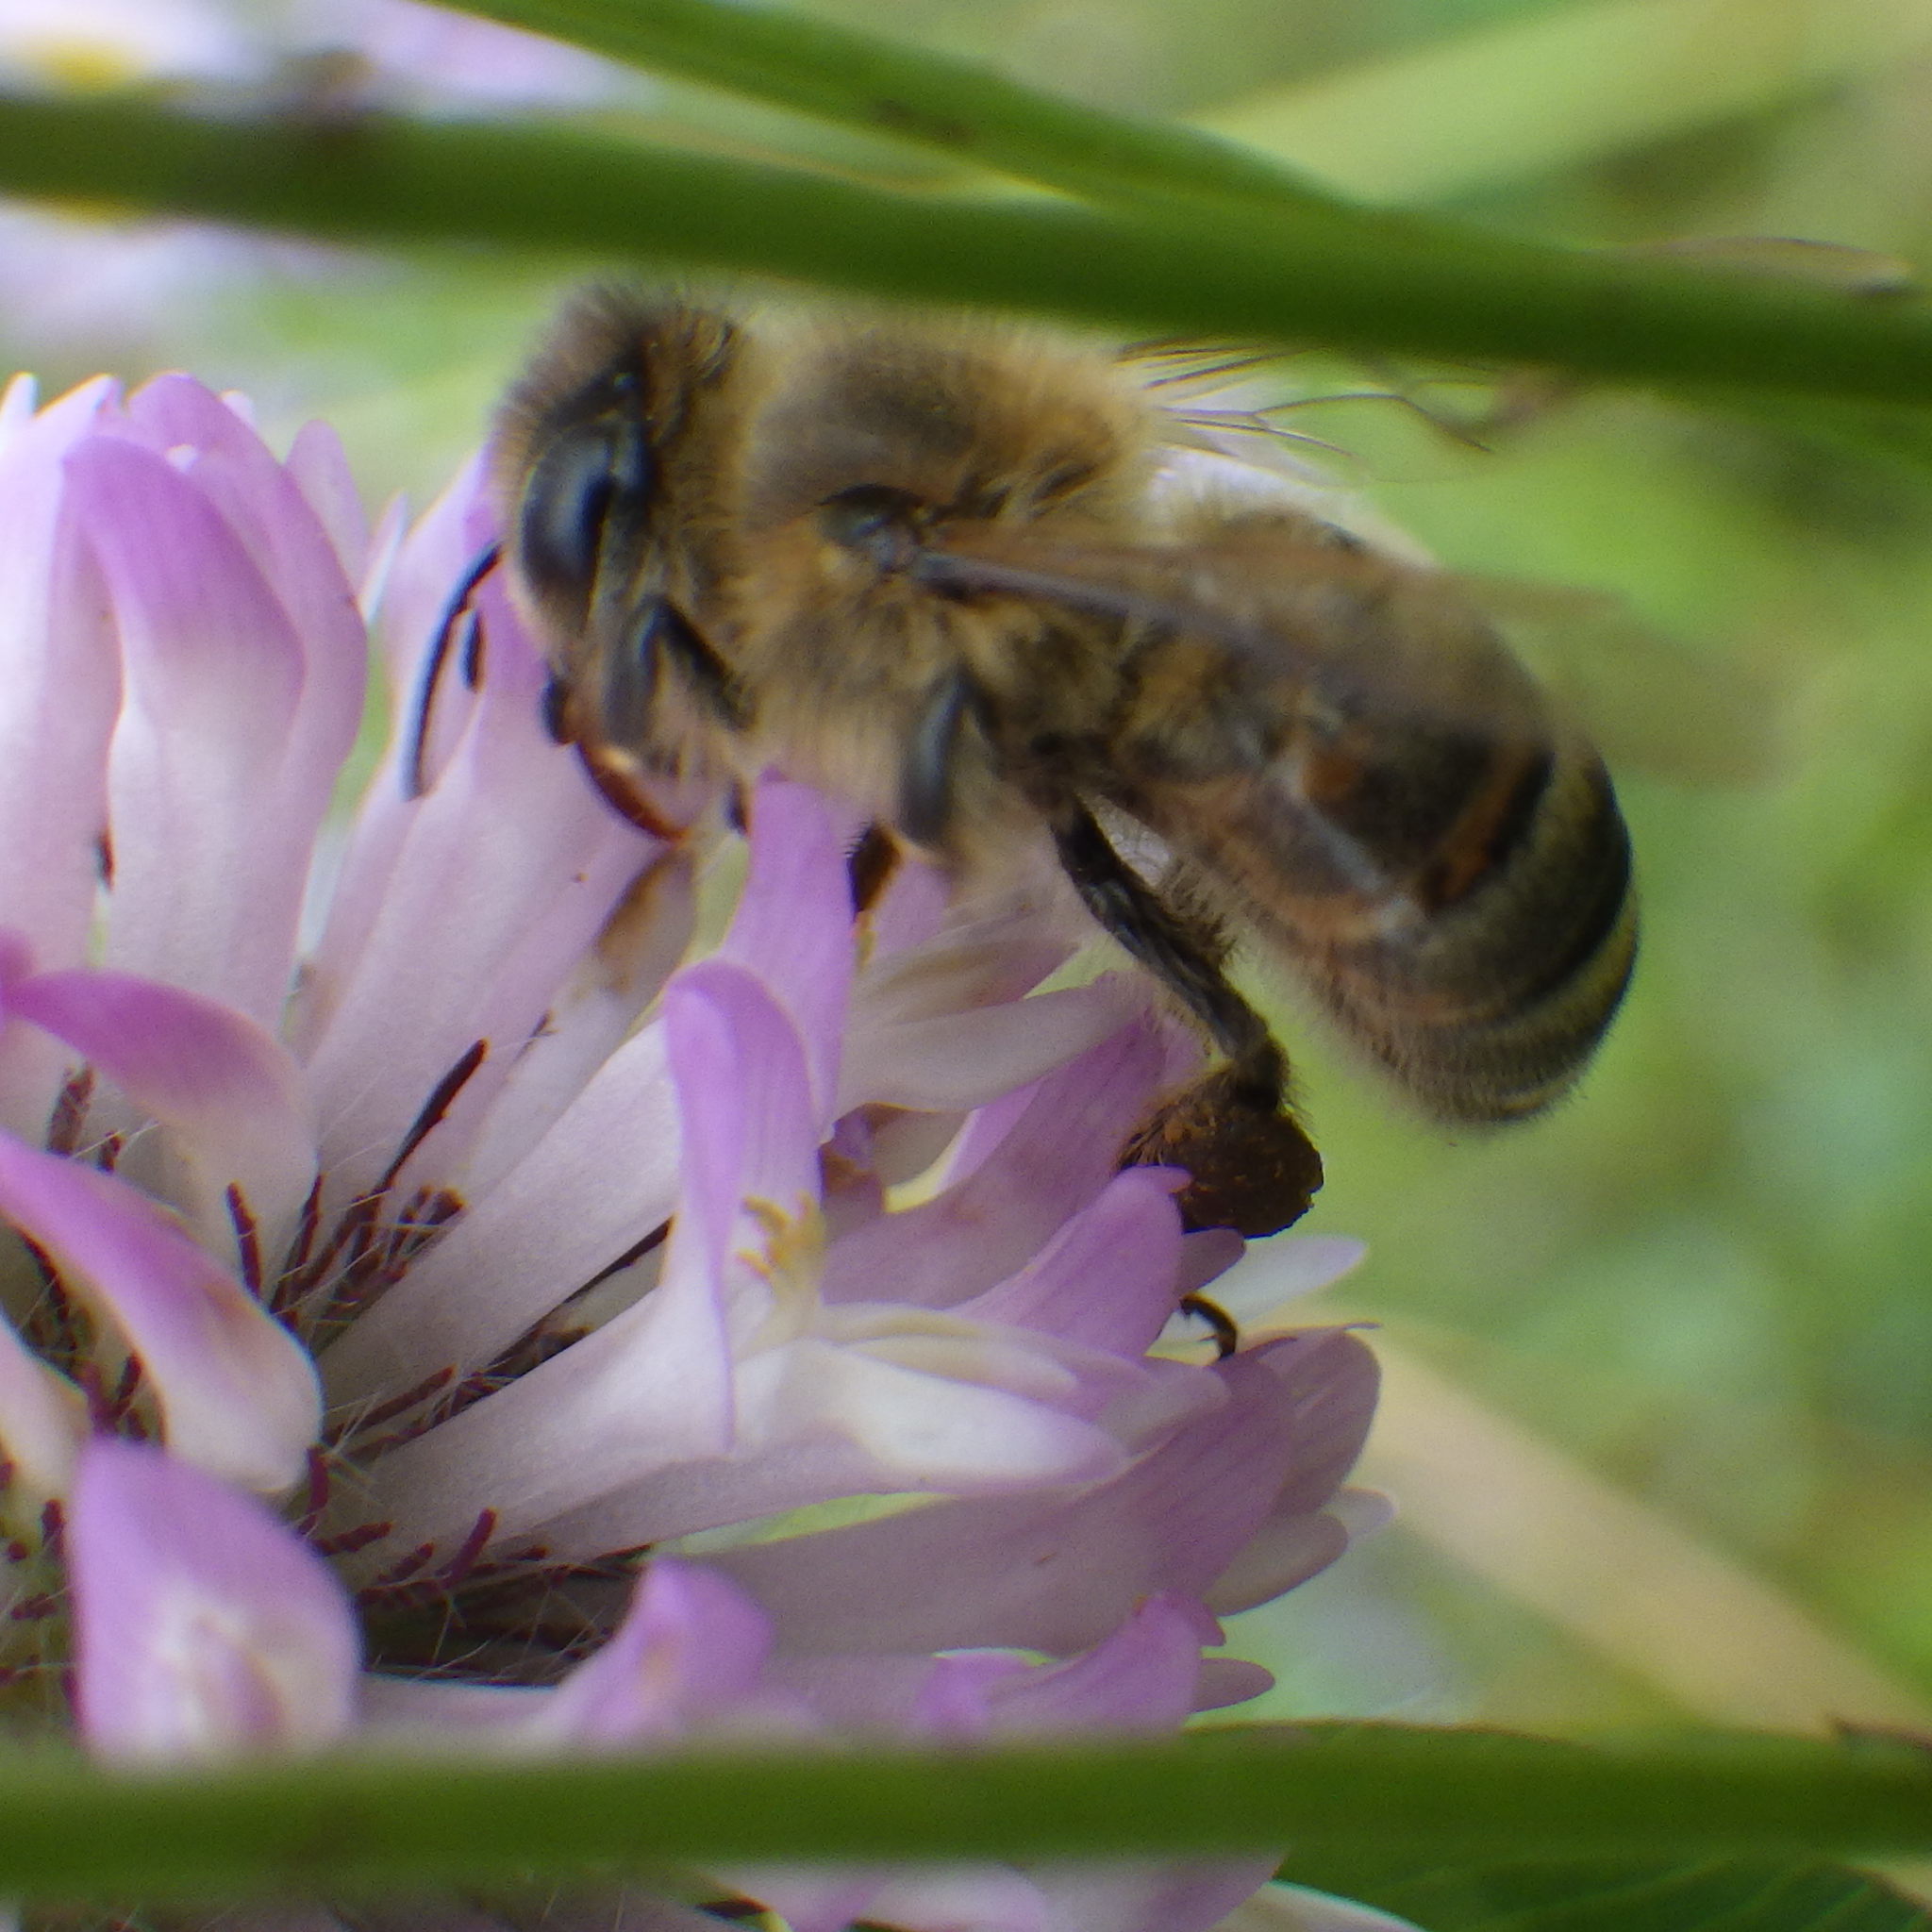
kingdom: Animalia
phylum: Arthropoda
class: Insecta
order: Hymenoptera
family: Apidae
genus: Apis
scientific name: Apis mellifera
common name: Honey bee
